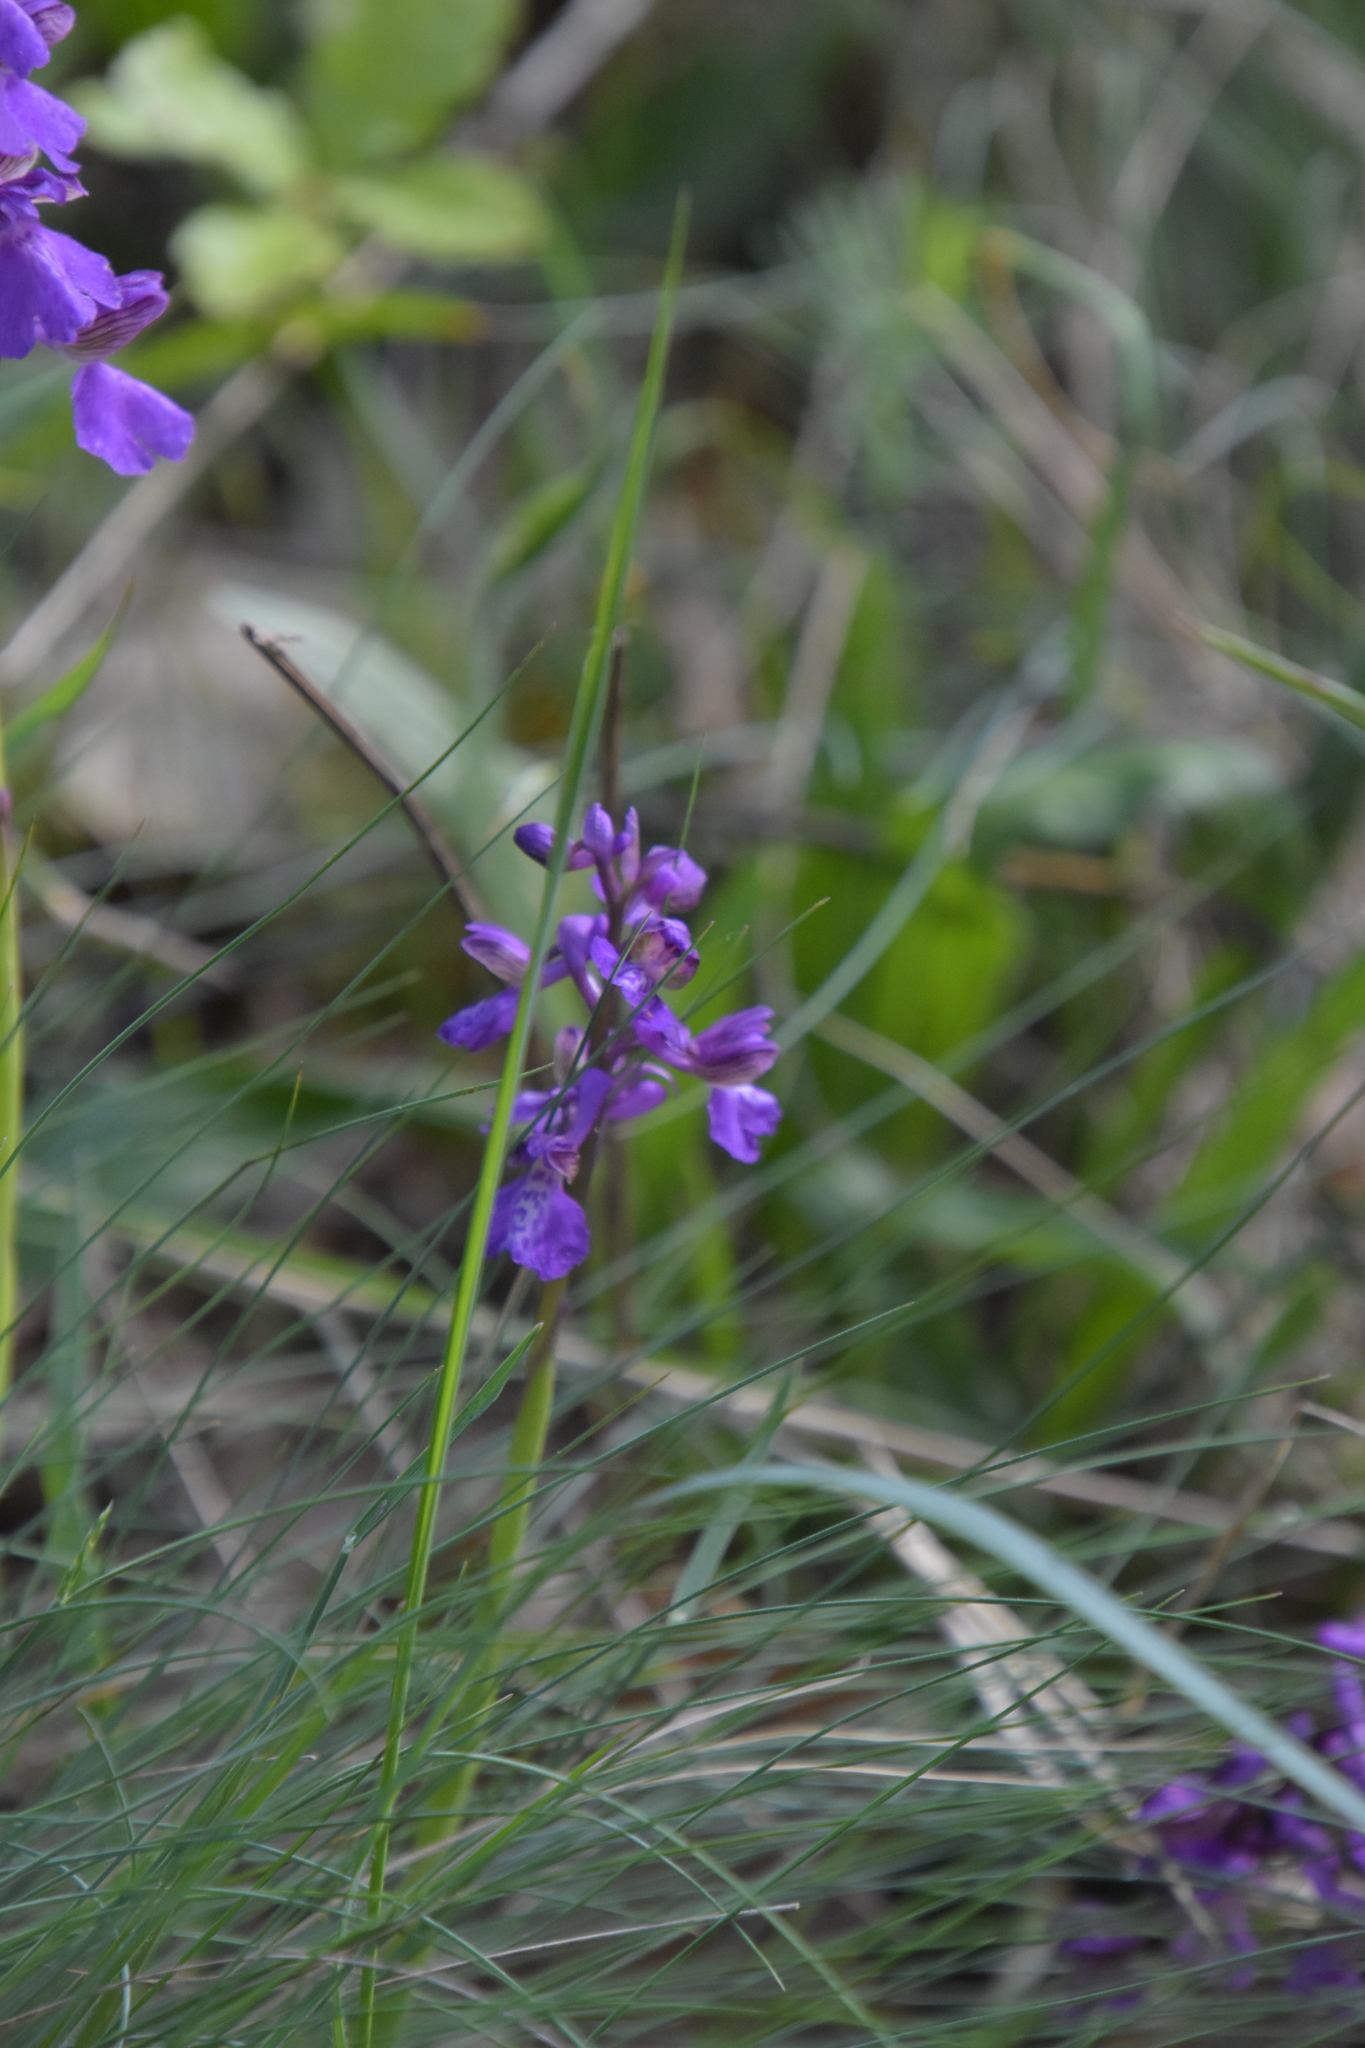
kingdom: Plantae
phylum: Tracheophyta
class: Liliopsida
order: Asparagales
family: Orchidaceae
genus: Anacamptis
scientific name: Anacamptis morio
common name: Green-winged orchid
